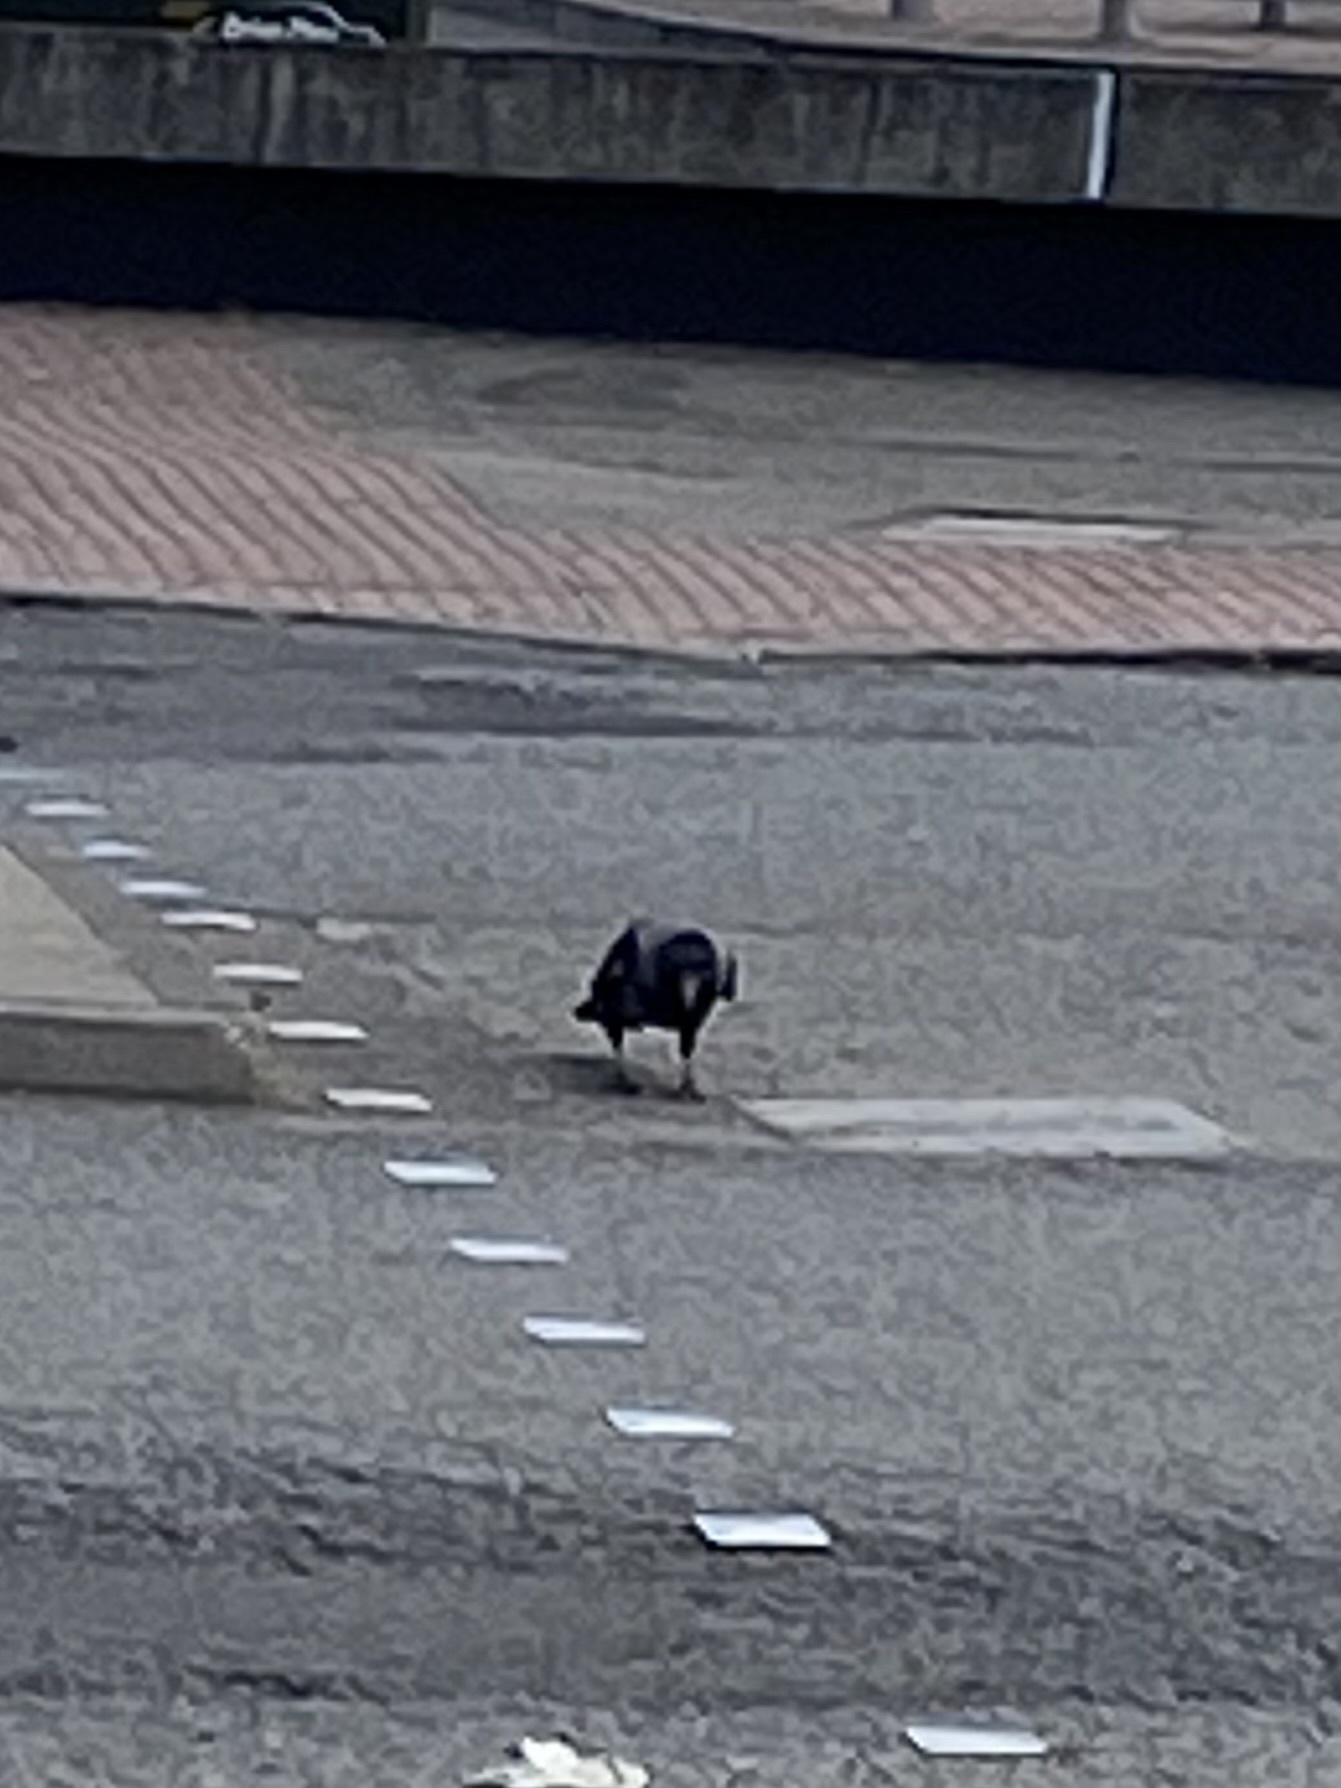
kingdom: Animalia
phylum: Chordata
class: Aves
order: Passeriformes
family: Corvidae
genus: Corvus
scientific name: Corvus cornix
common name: Hooded crow
